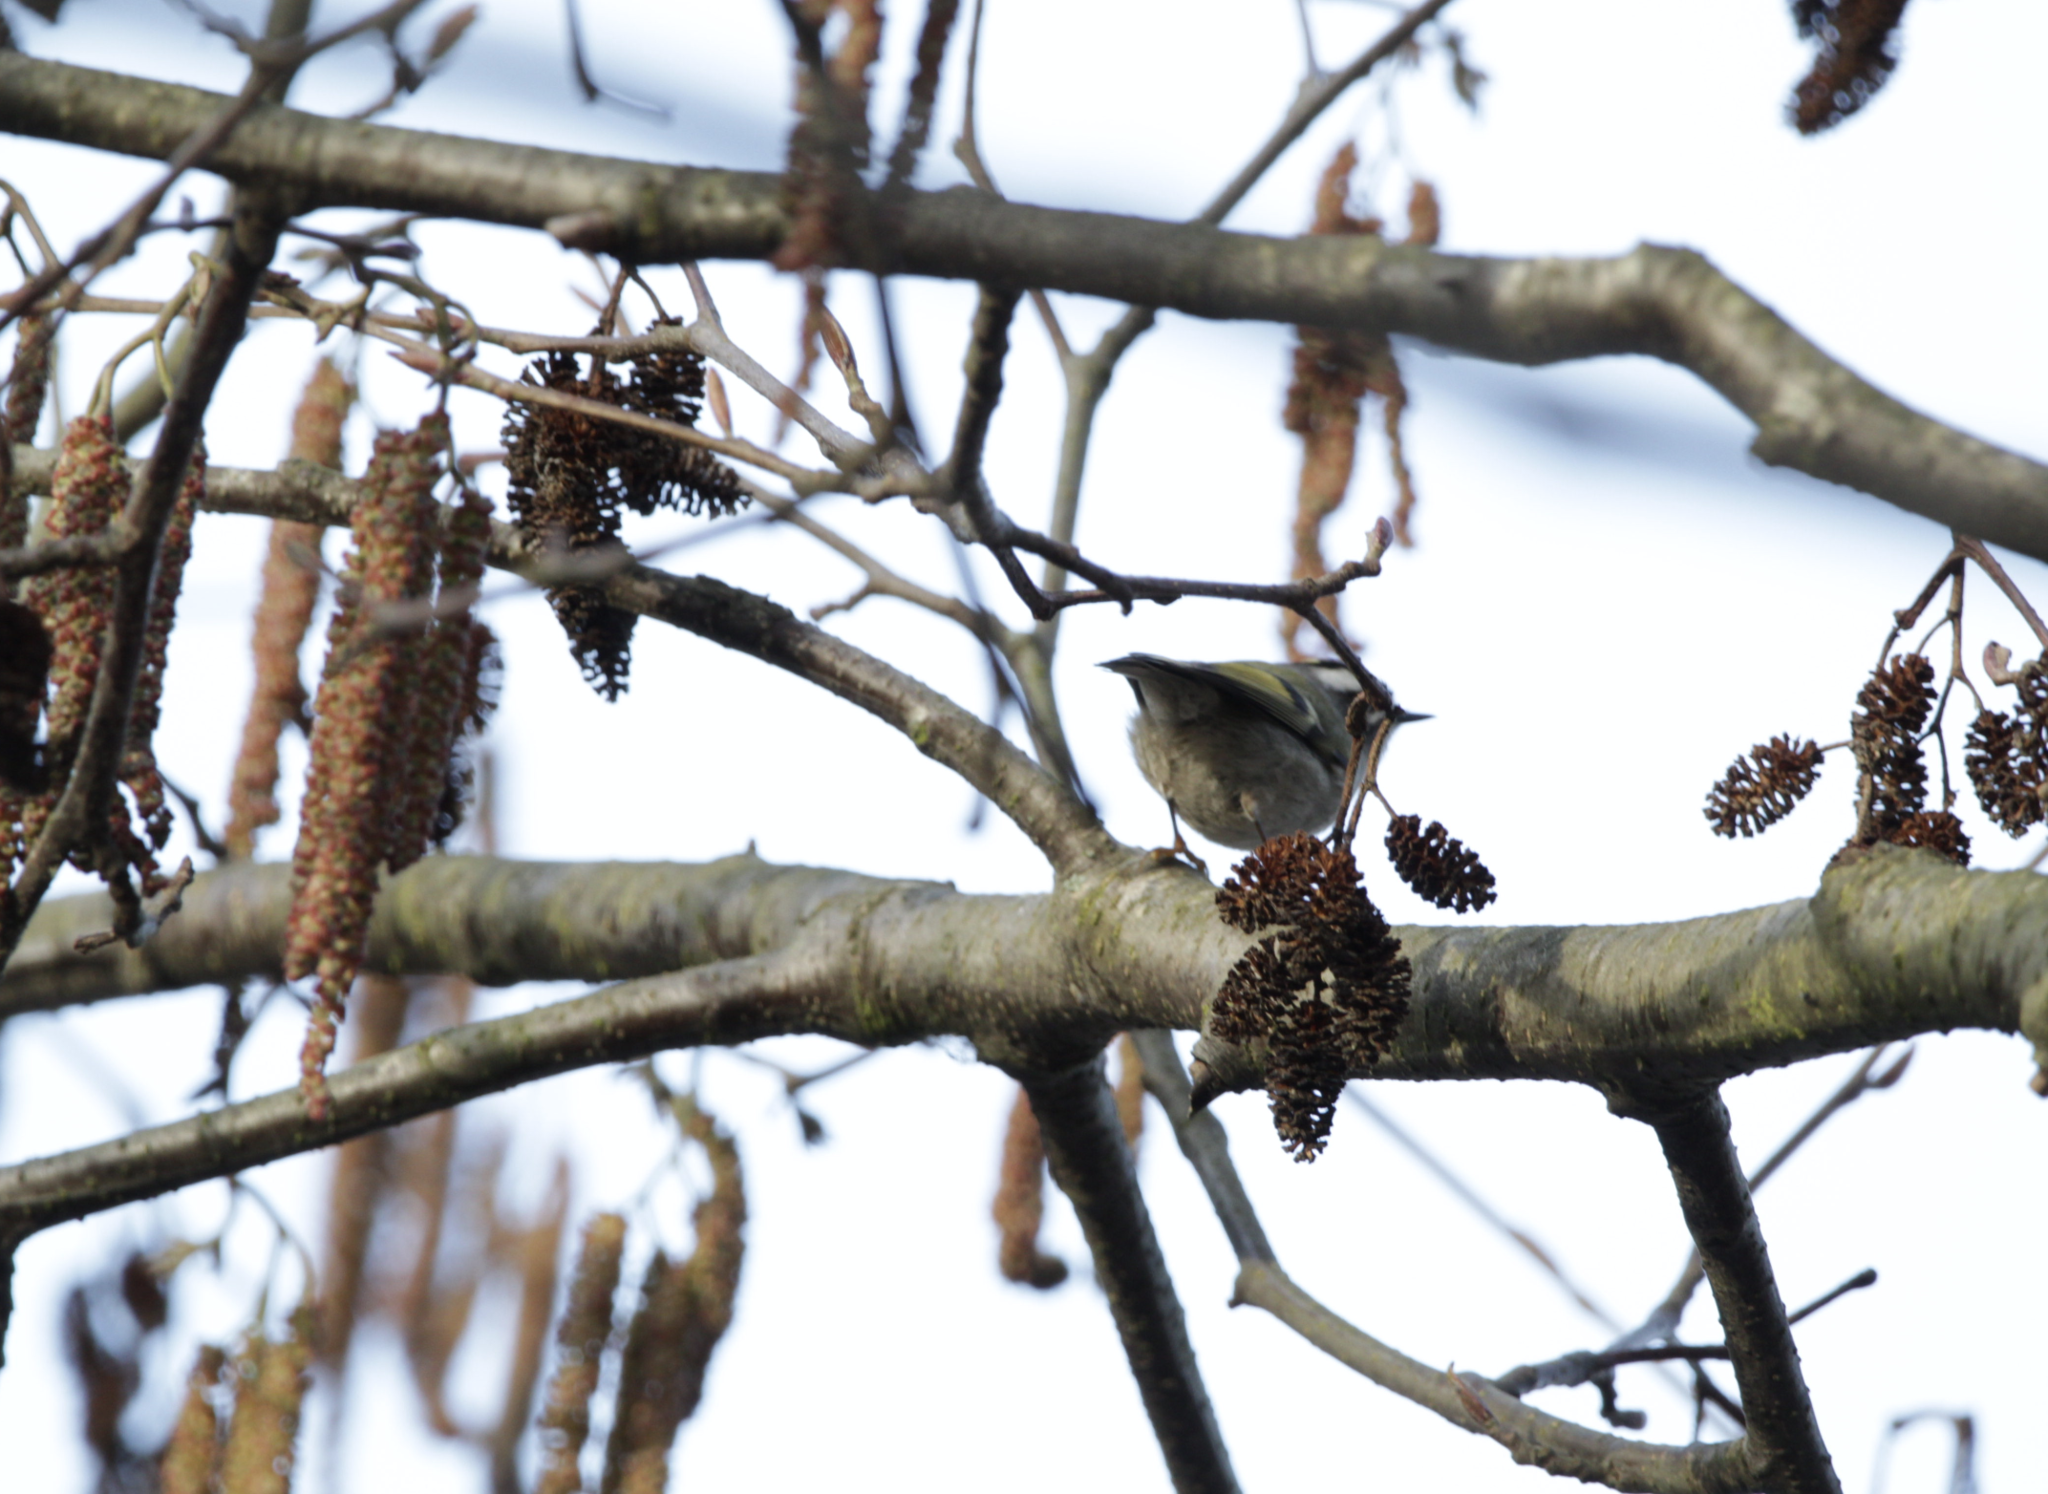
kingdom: Animalia
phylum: Chordata
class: Aves
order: Passeriformes
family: Regulidae
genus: Regulus
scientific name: Regulus satrapa
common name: Golden-crowned kinglet
